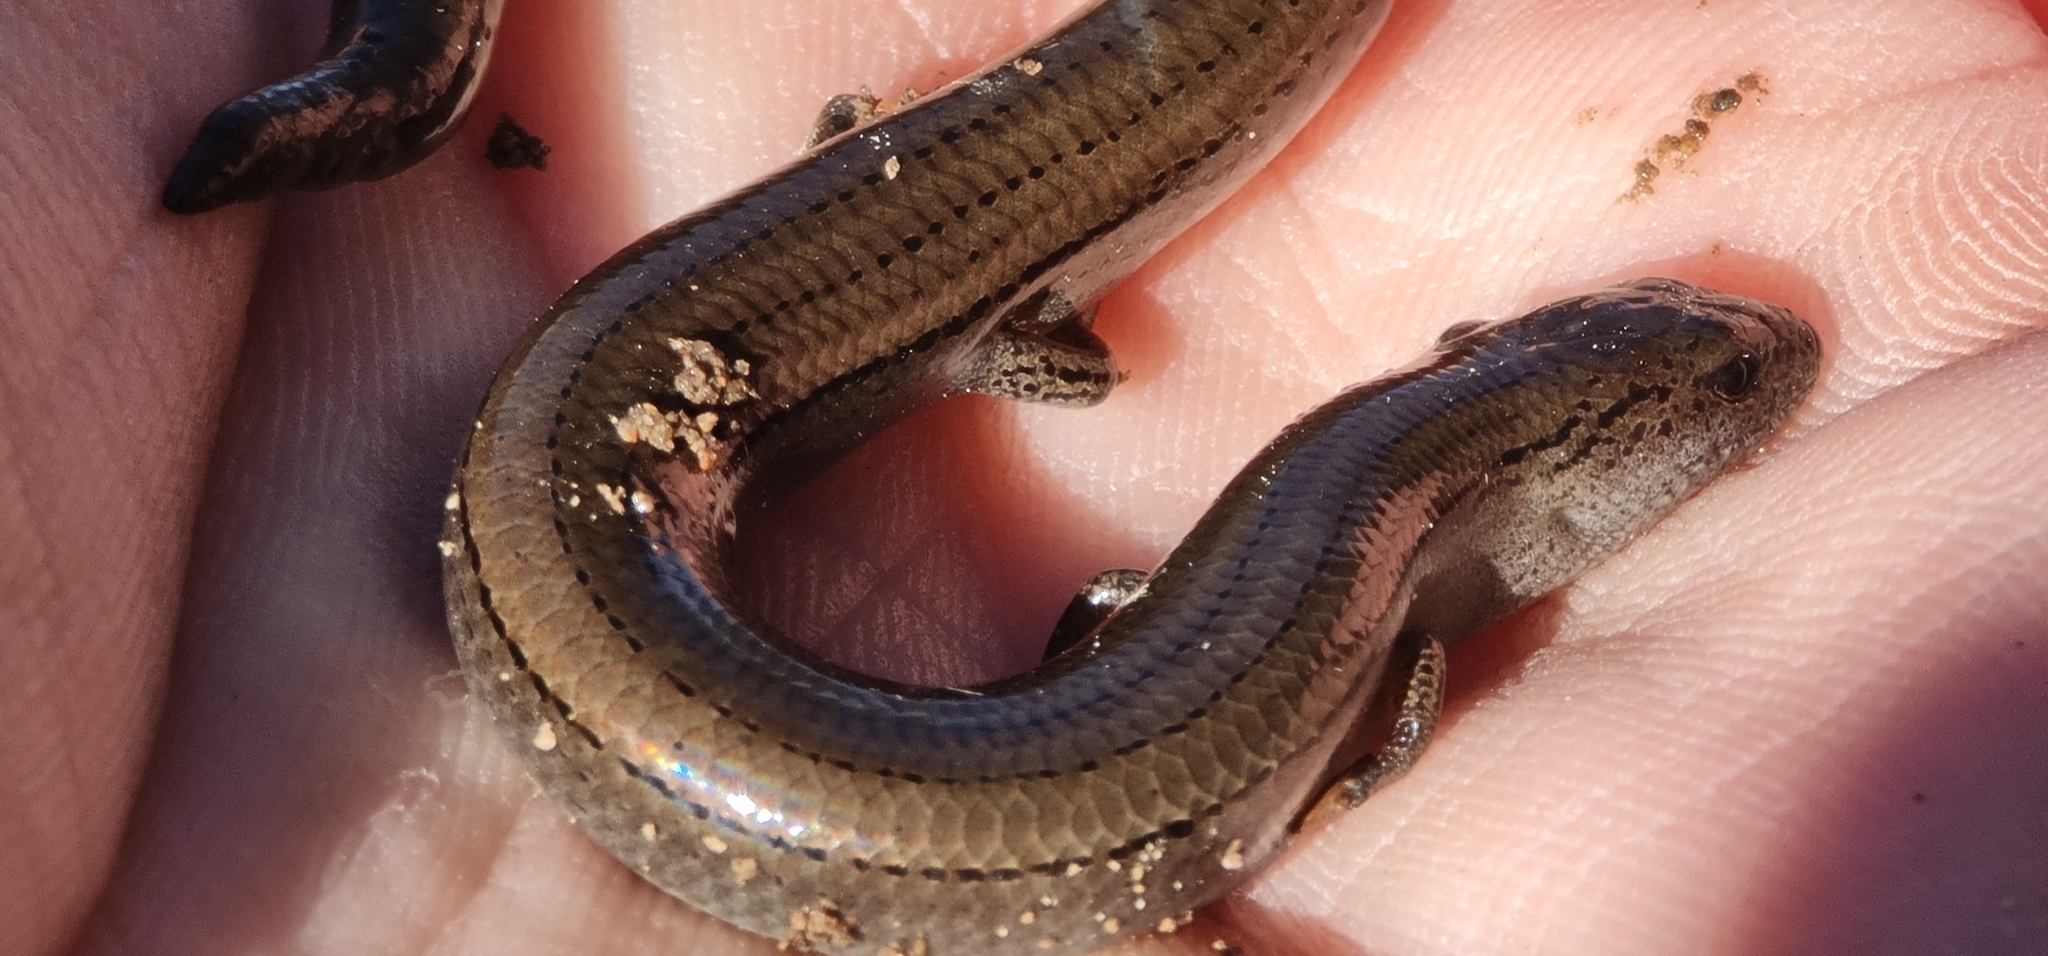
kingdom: Animalia
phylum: Chordata
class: Squamata
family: Scincidae
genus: Hemiergis
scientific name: Hemiergis talbingoensis
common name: Victoria three-toed earless skink
